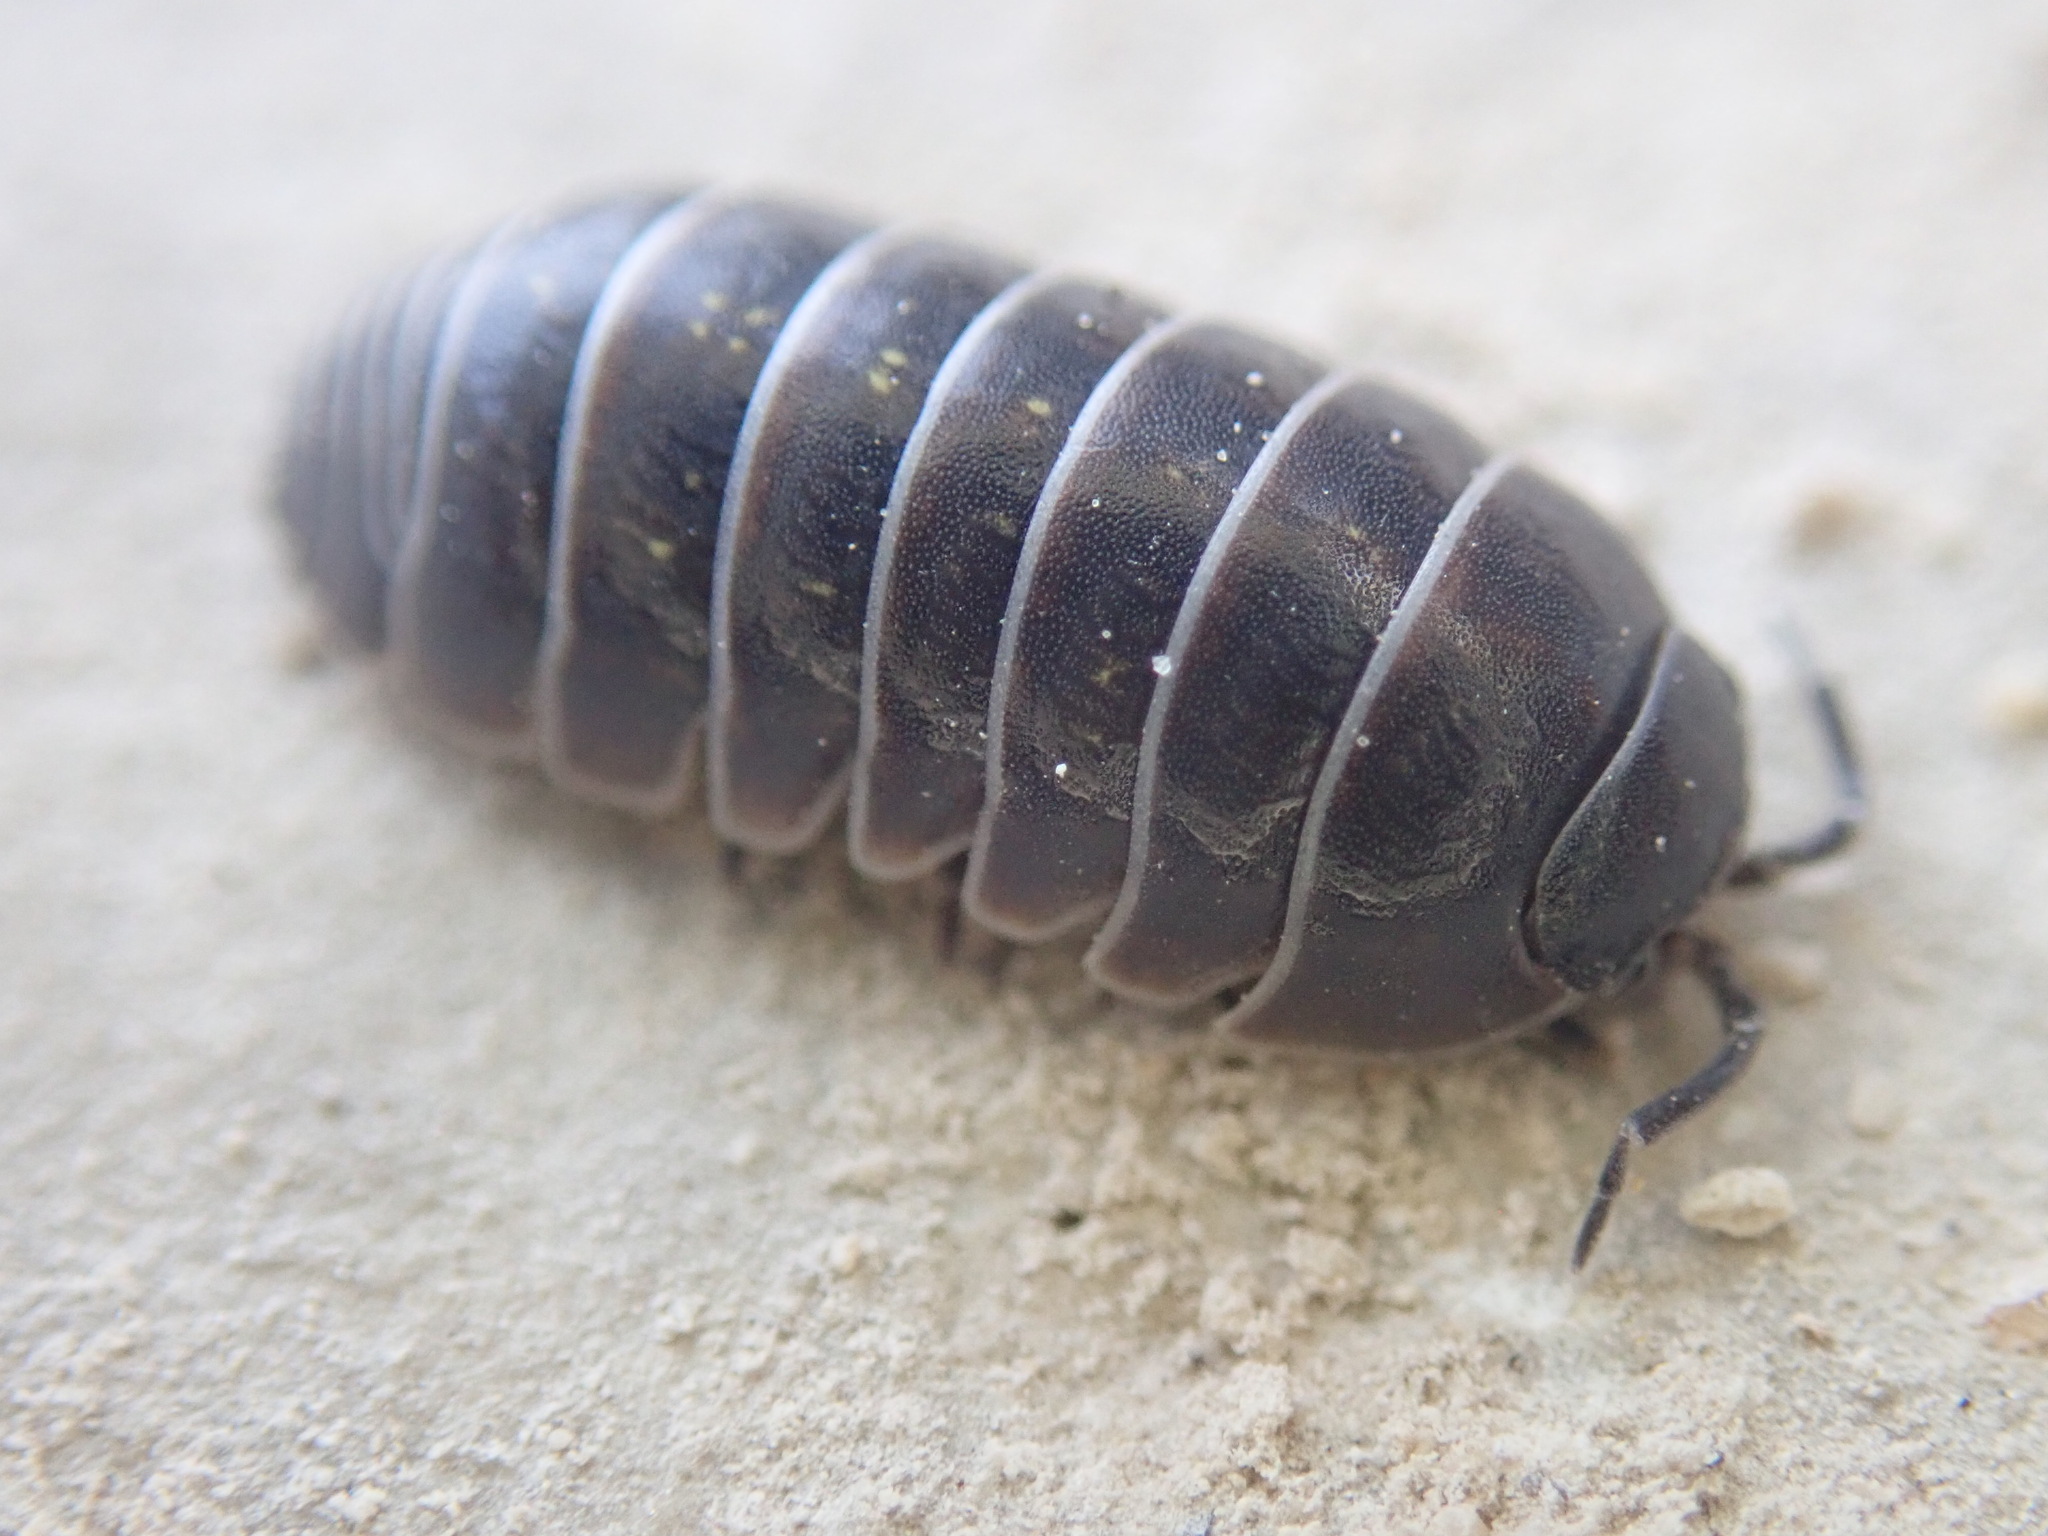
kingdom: Animalia
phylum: Arthropoda
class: Malacostraca
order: Isopoda
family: Armadillidiidae
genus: Armadillidium
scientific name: Armadillidium vulgare
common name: Common pill woodlouse
